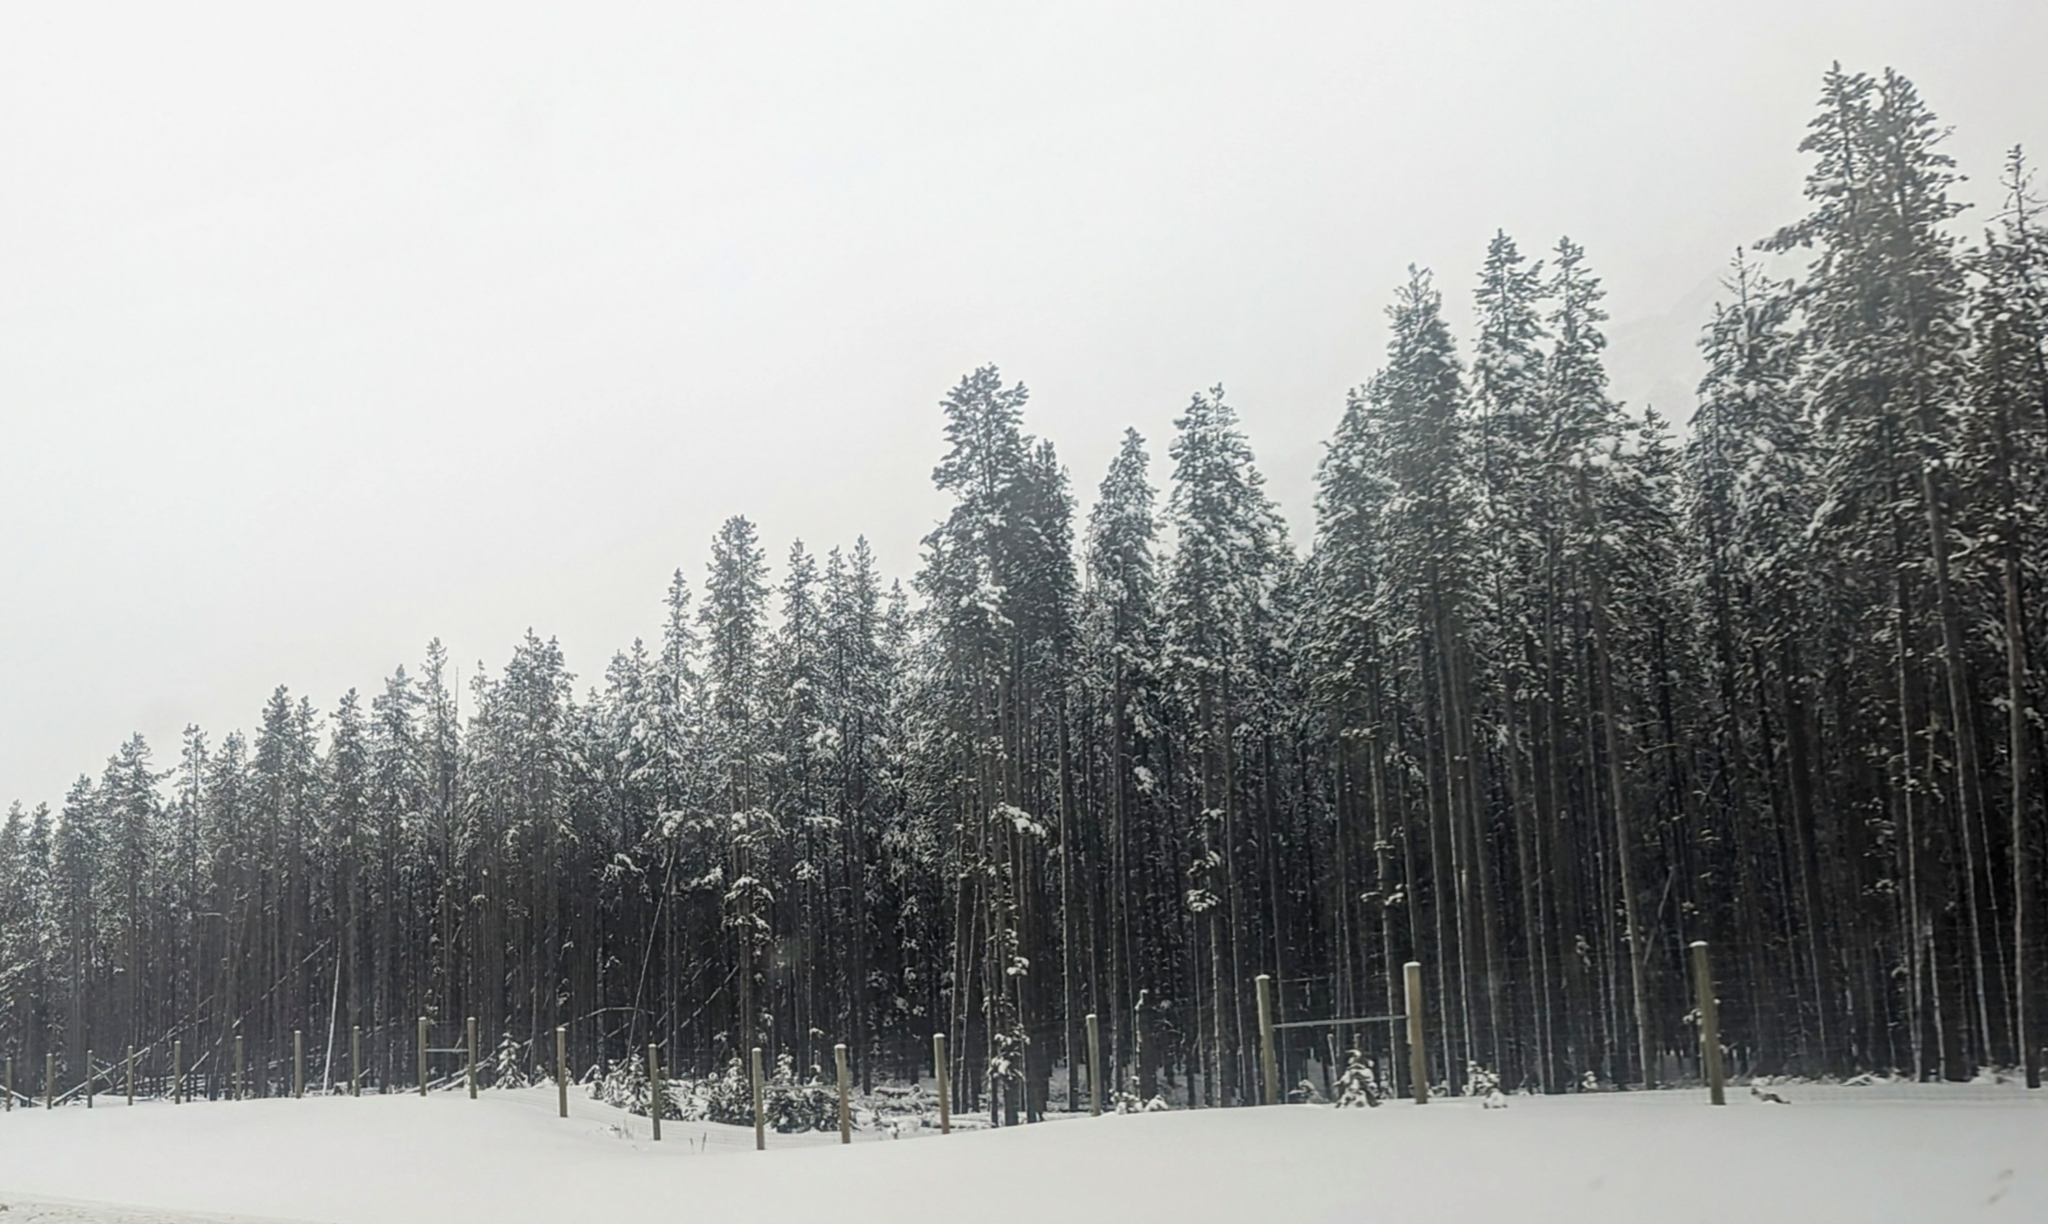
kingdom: Plantae
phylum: Tracheophyta
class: Pinopsida
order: Pinales
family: Pinaceae
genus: Pinus
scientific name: Pinus contorta
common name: Lodgepole pine
